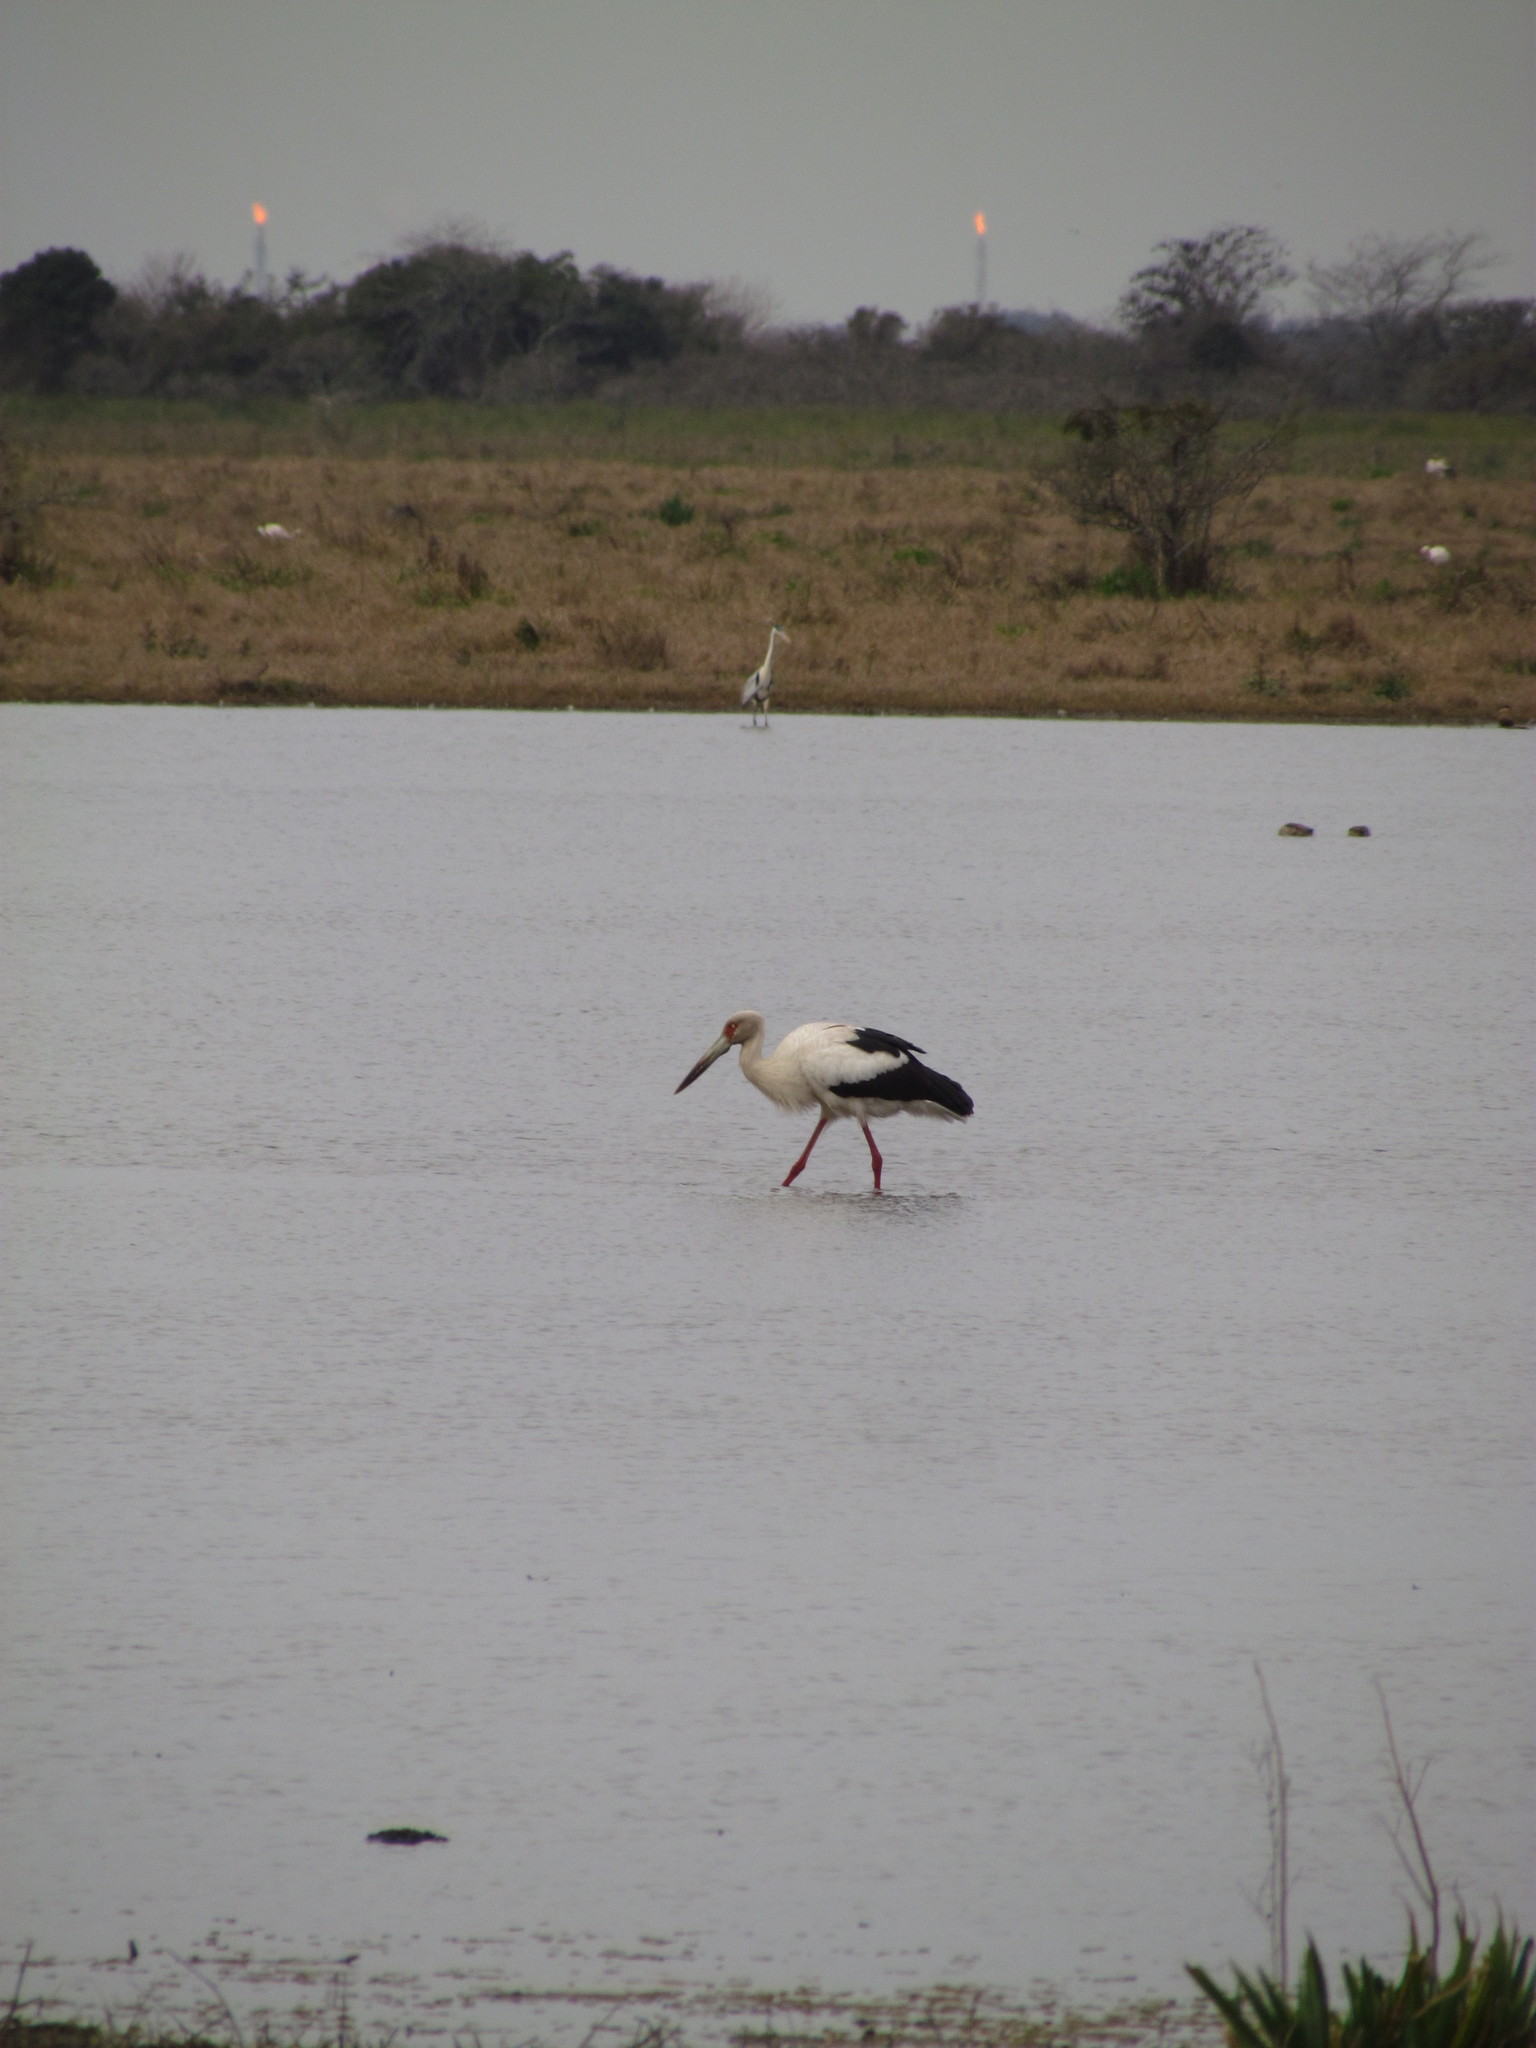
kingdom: Animalia
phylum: Chordata
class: Aves
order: Ciconiiformes
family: Ciconiidae
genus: Ciconia
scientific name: Ciconia maguari
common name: Maguari stork
